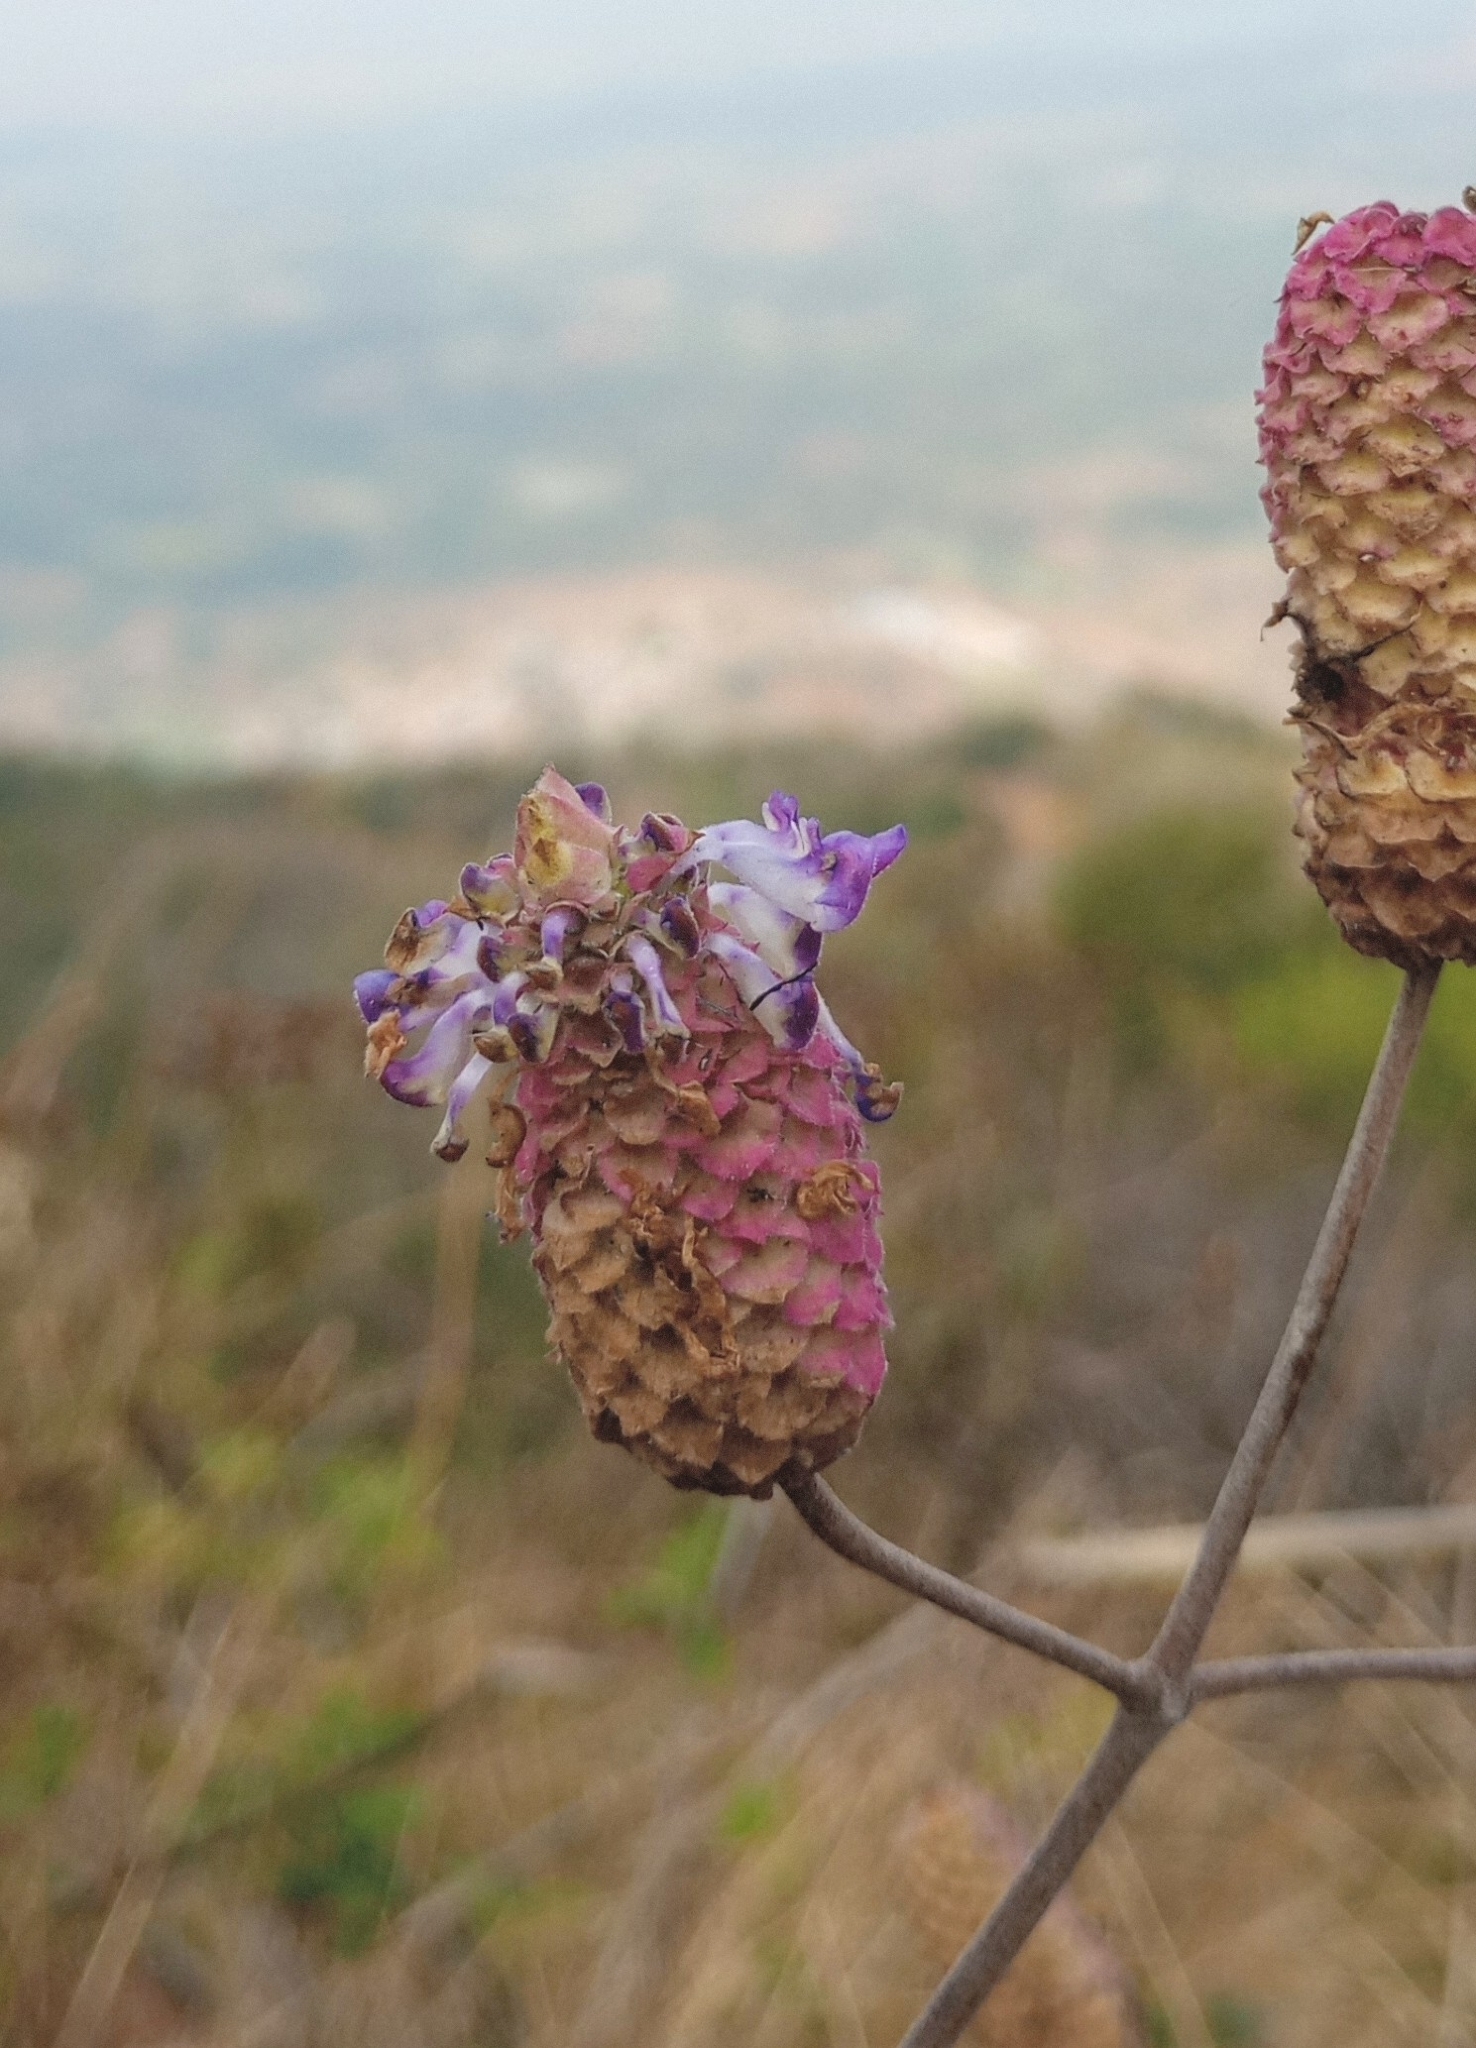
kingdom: Plantae
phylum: Tracheophyta
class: Magnoliopsida
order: Lamiales
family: Lamiaceae
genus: Coleus
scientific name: Coleus strobilifer
